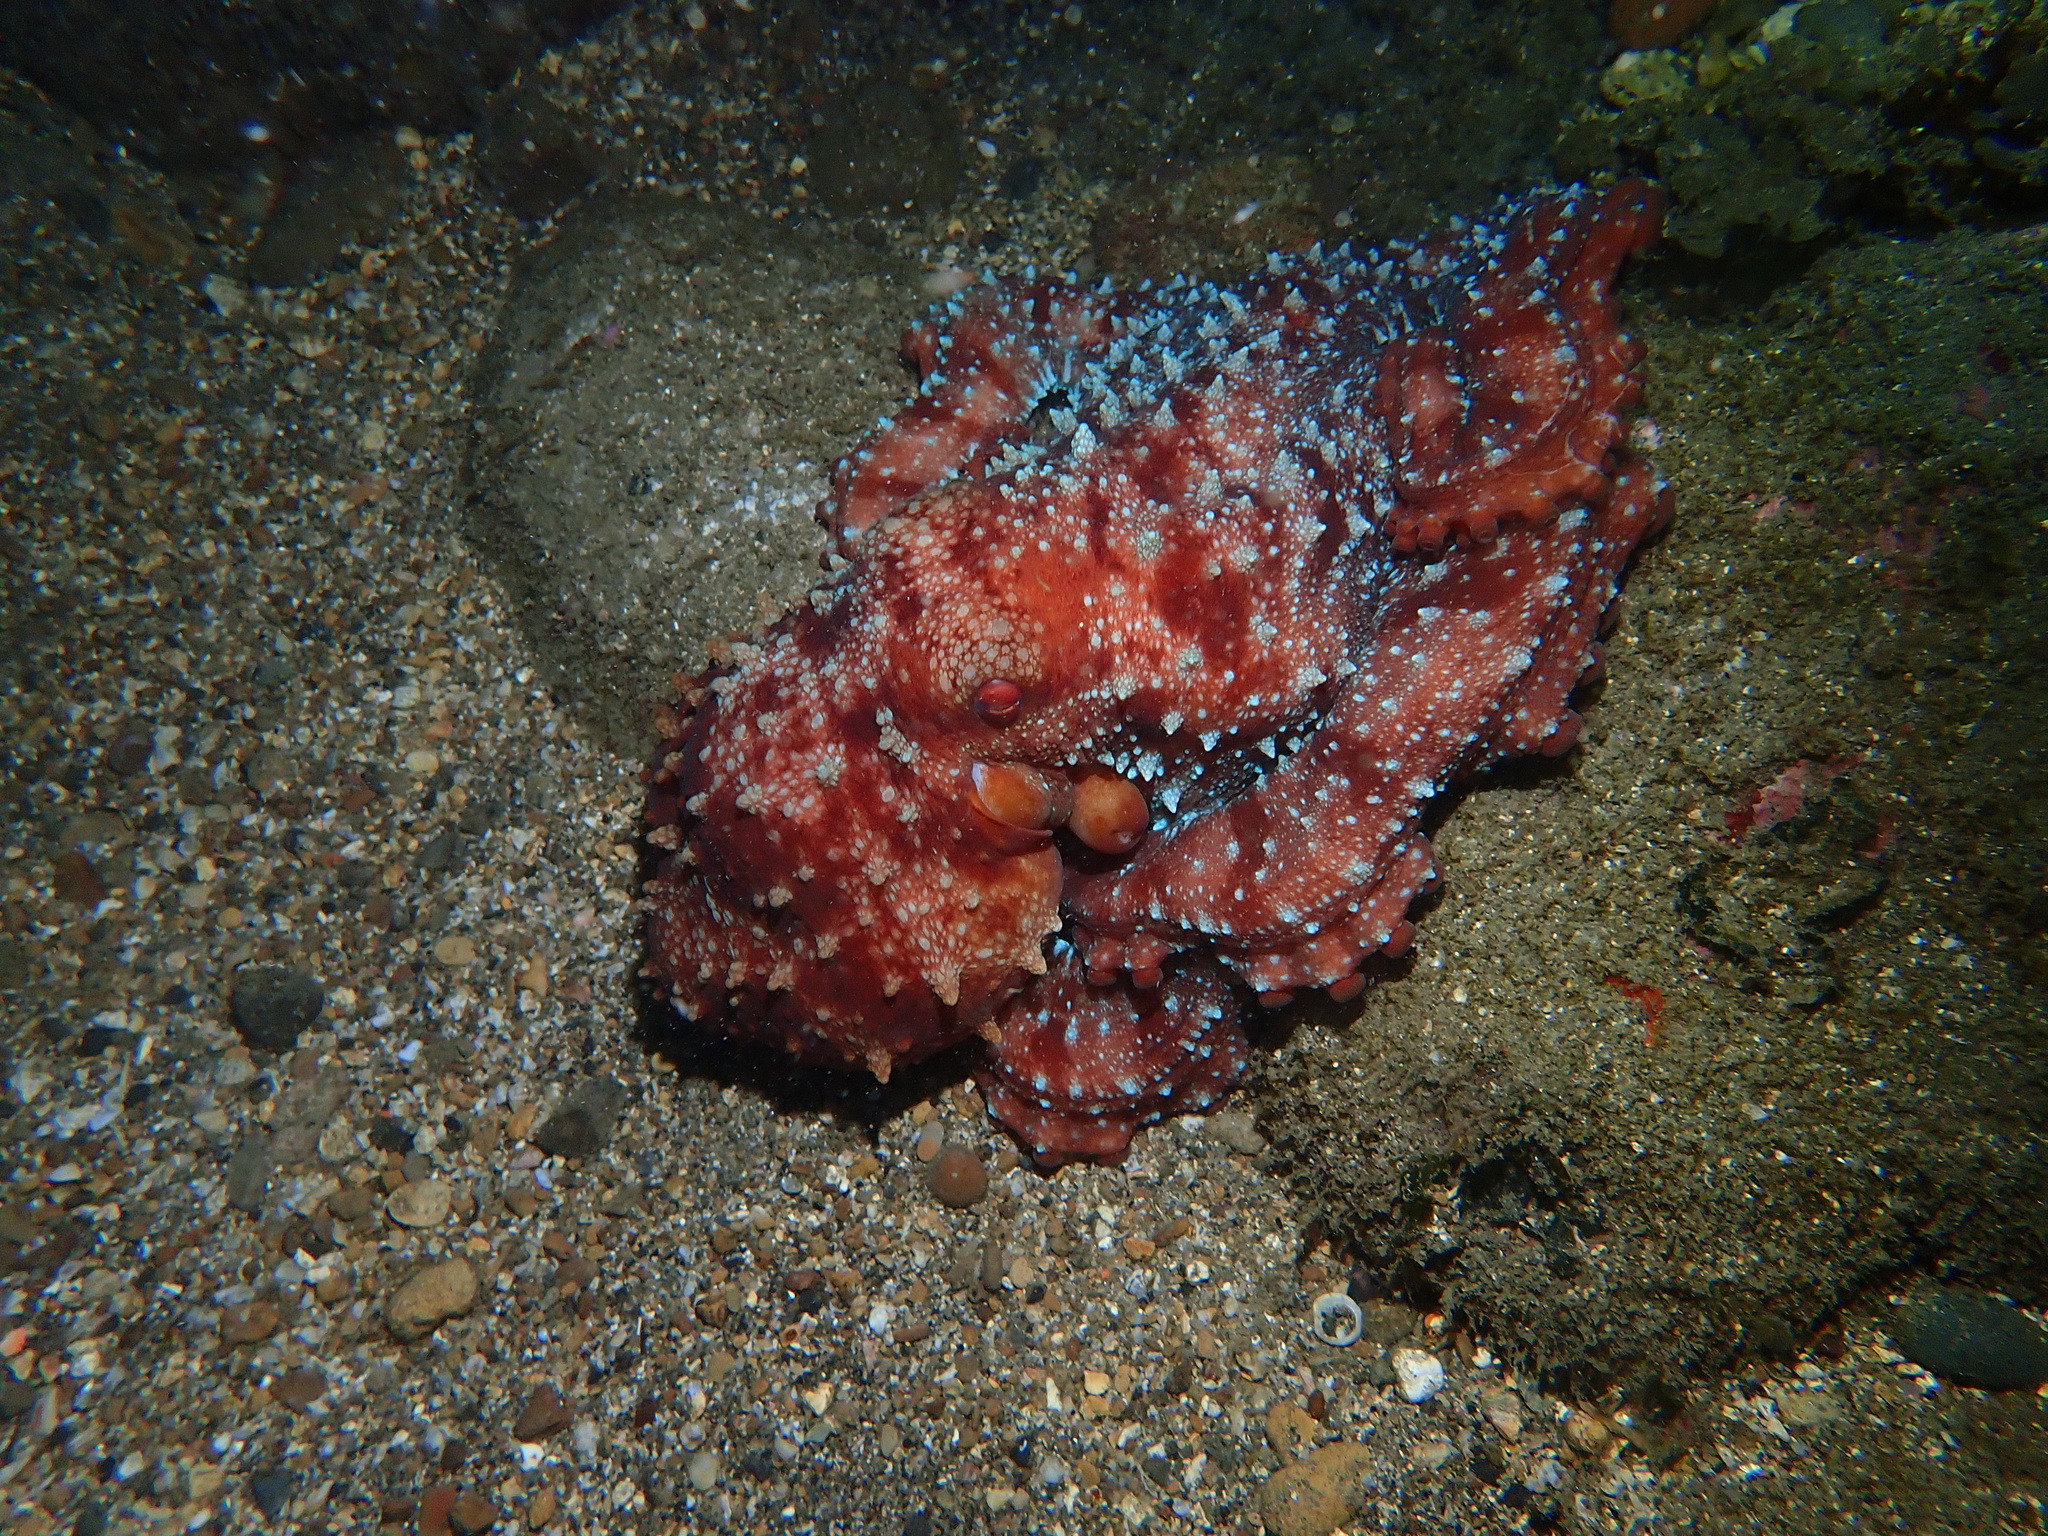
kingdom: Animalia
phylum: Mollusca
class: Cephalopoda
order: Octopoda
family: Octopodidae
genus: Callistoctopus
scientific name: Callistoctopus luteus
